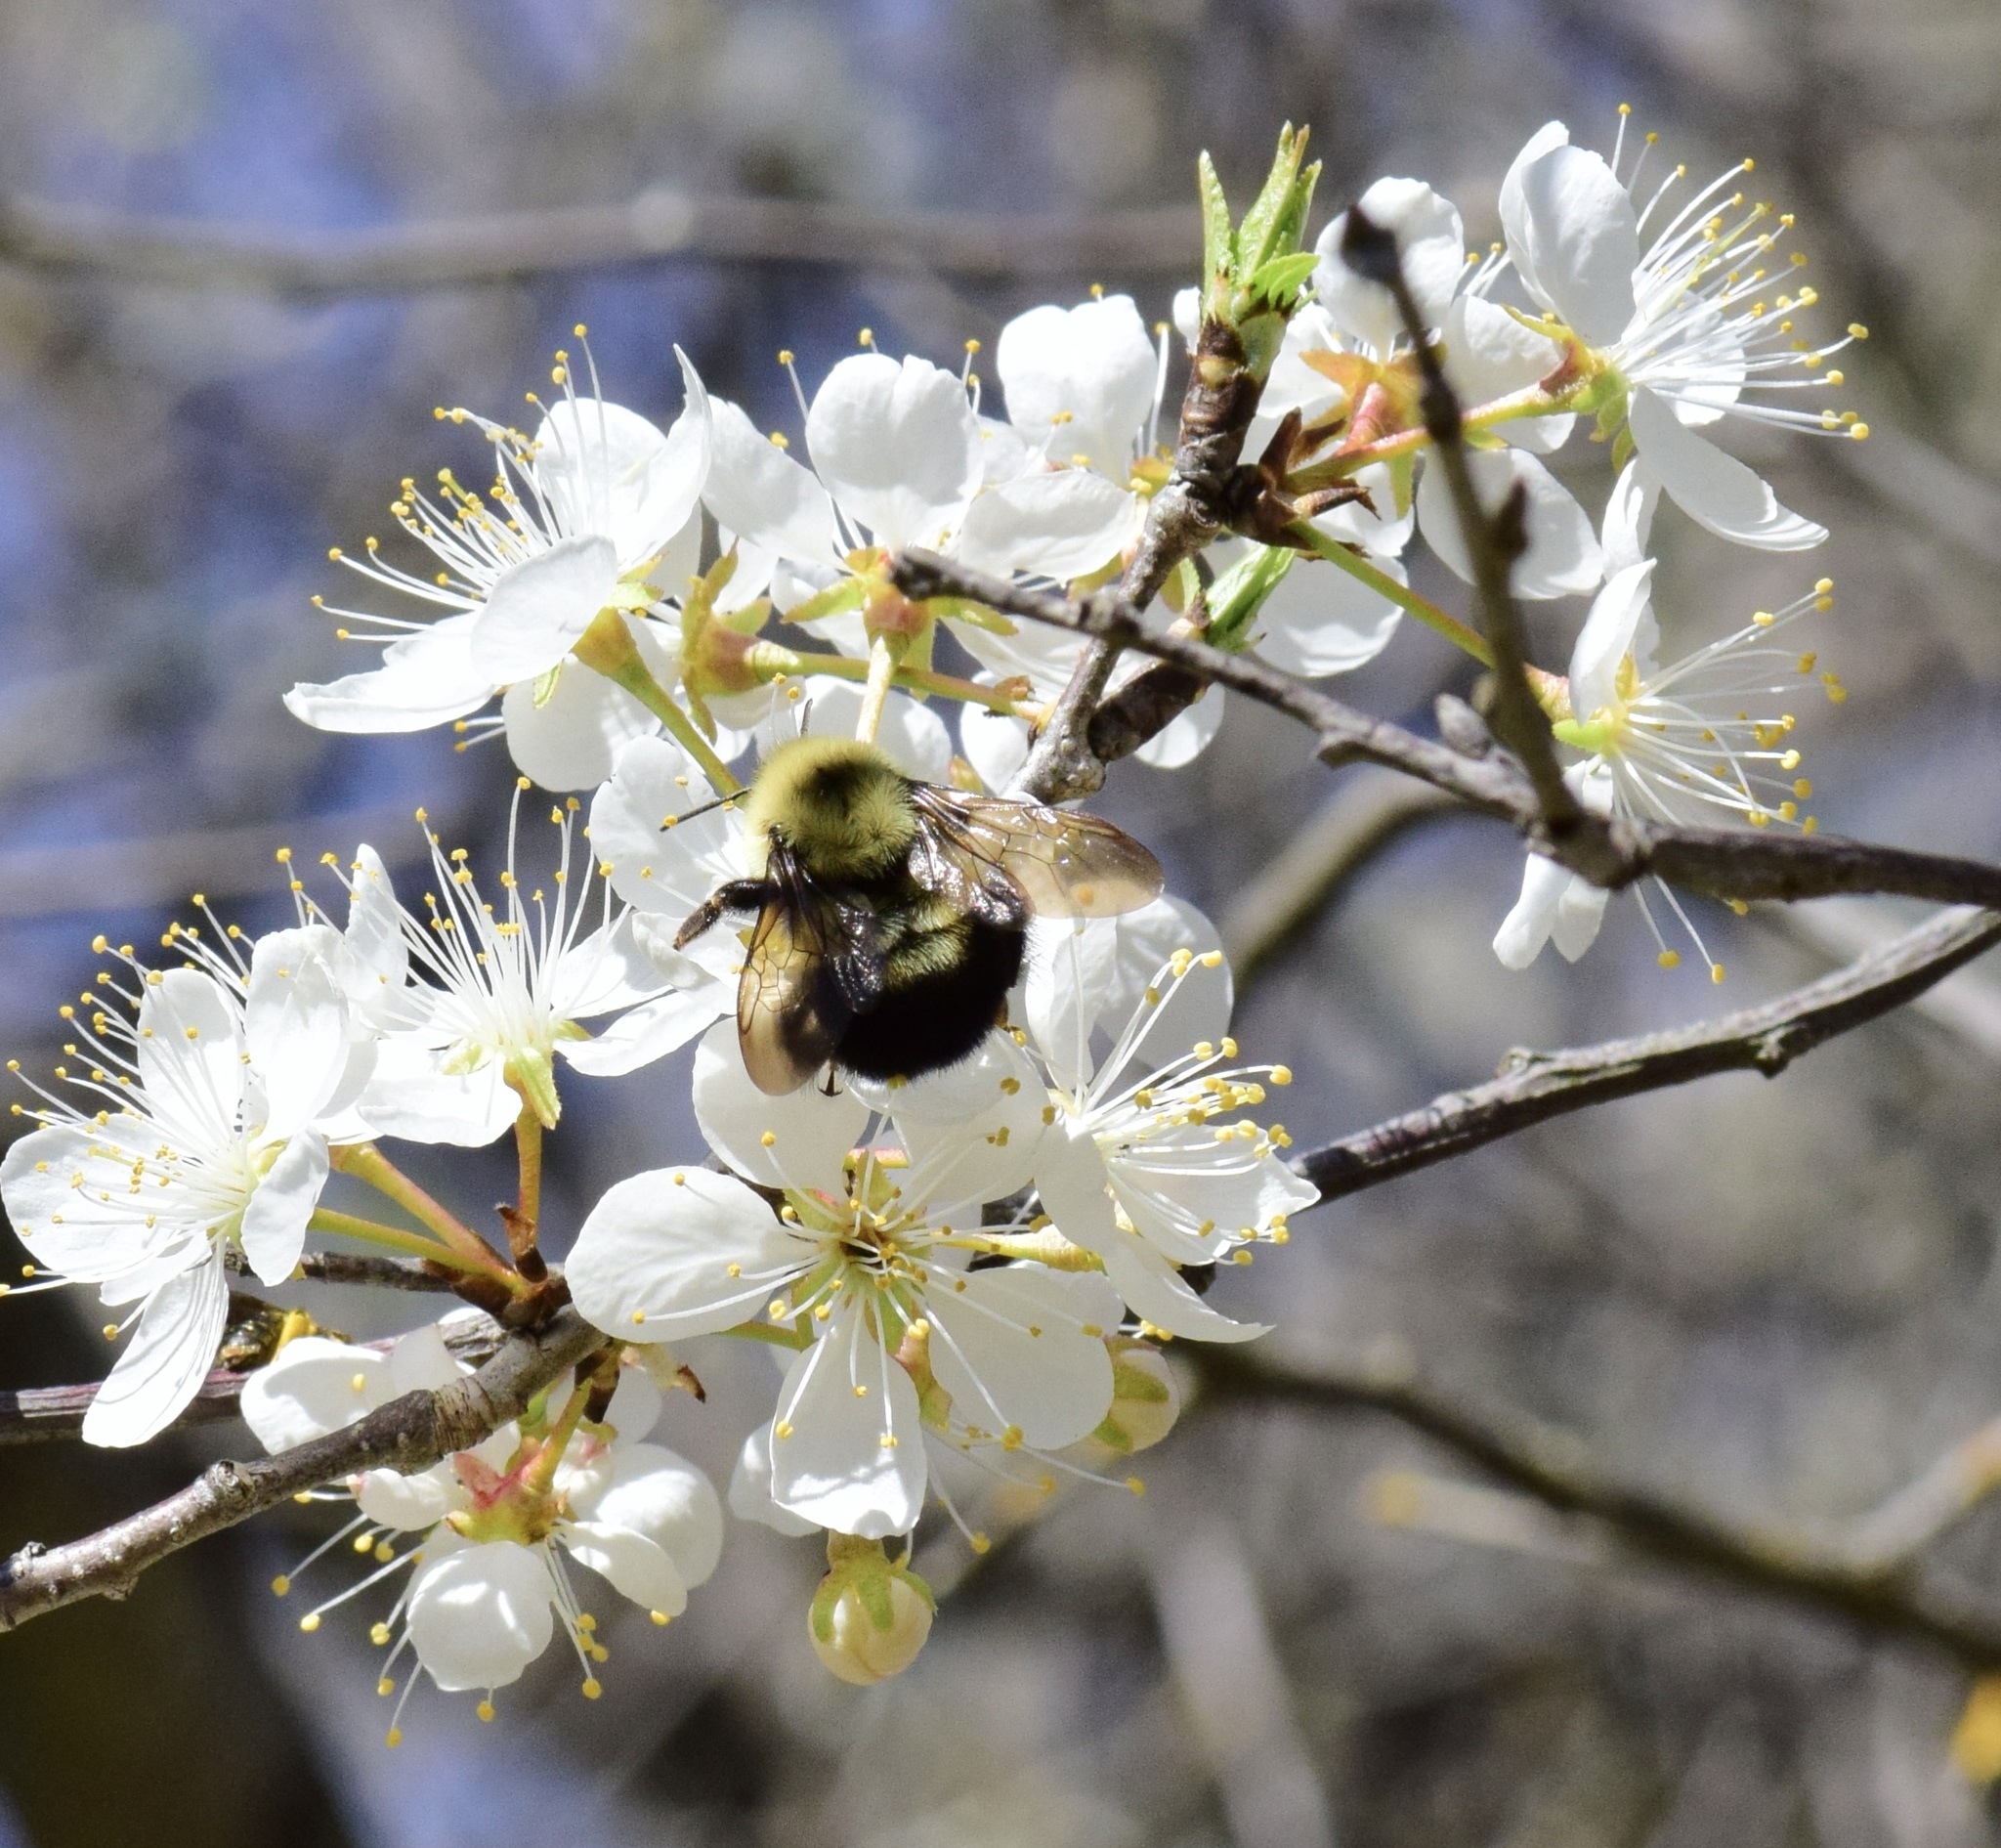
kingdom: Animalia
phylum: Arthropoda
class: Insecta
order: Hymenoptera
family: Apidae
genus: Bombus
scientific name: Bombus bimaculatus
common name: Two-spotted bumble bee
